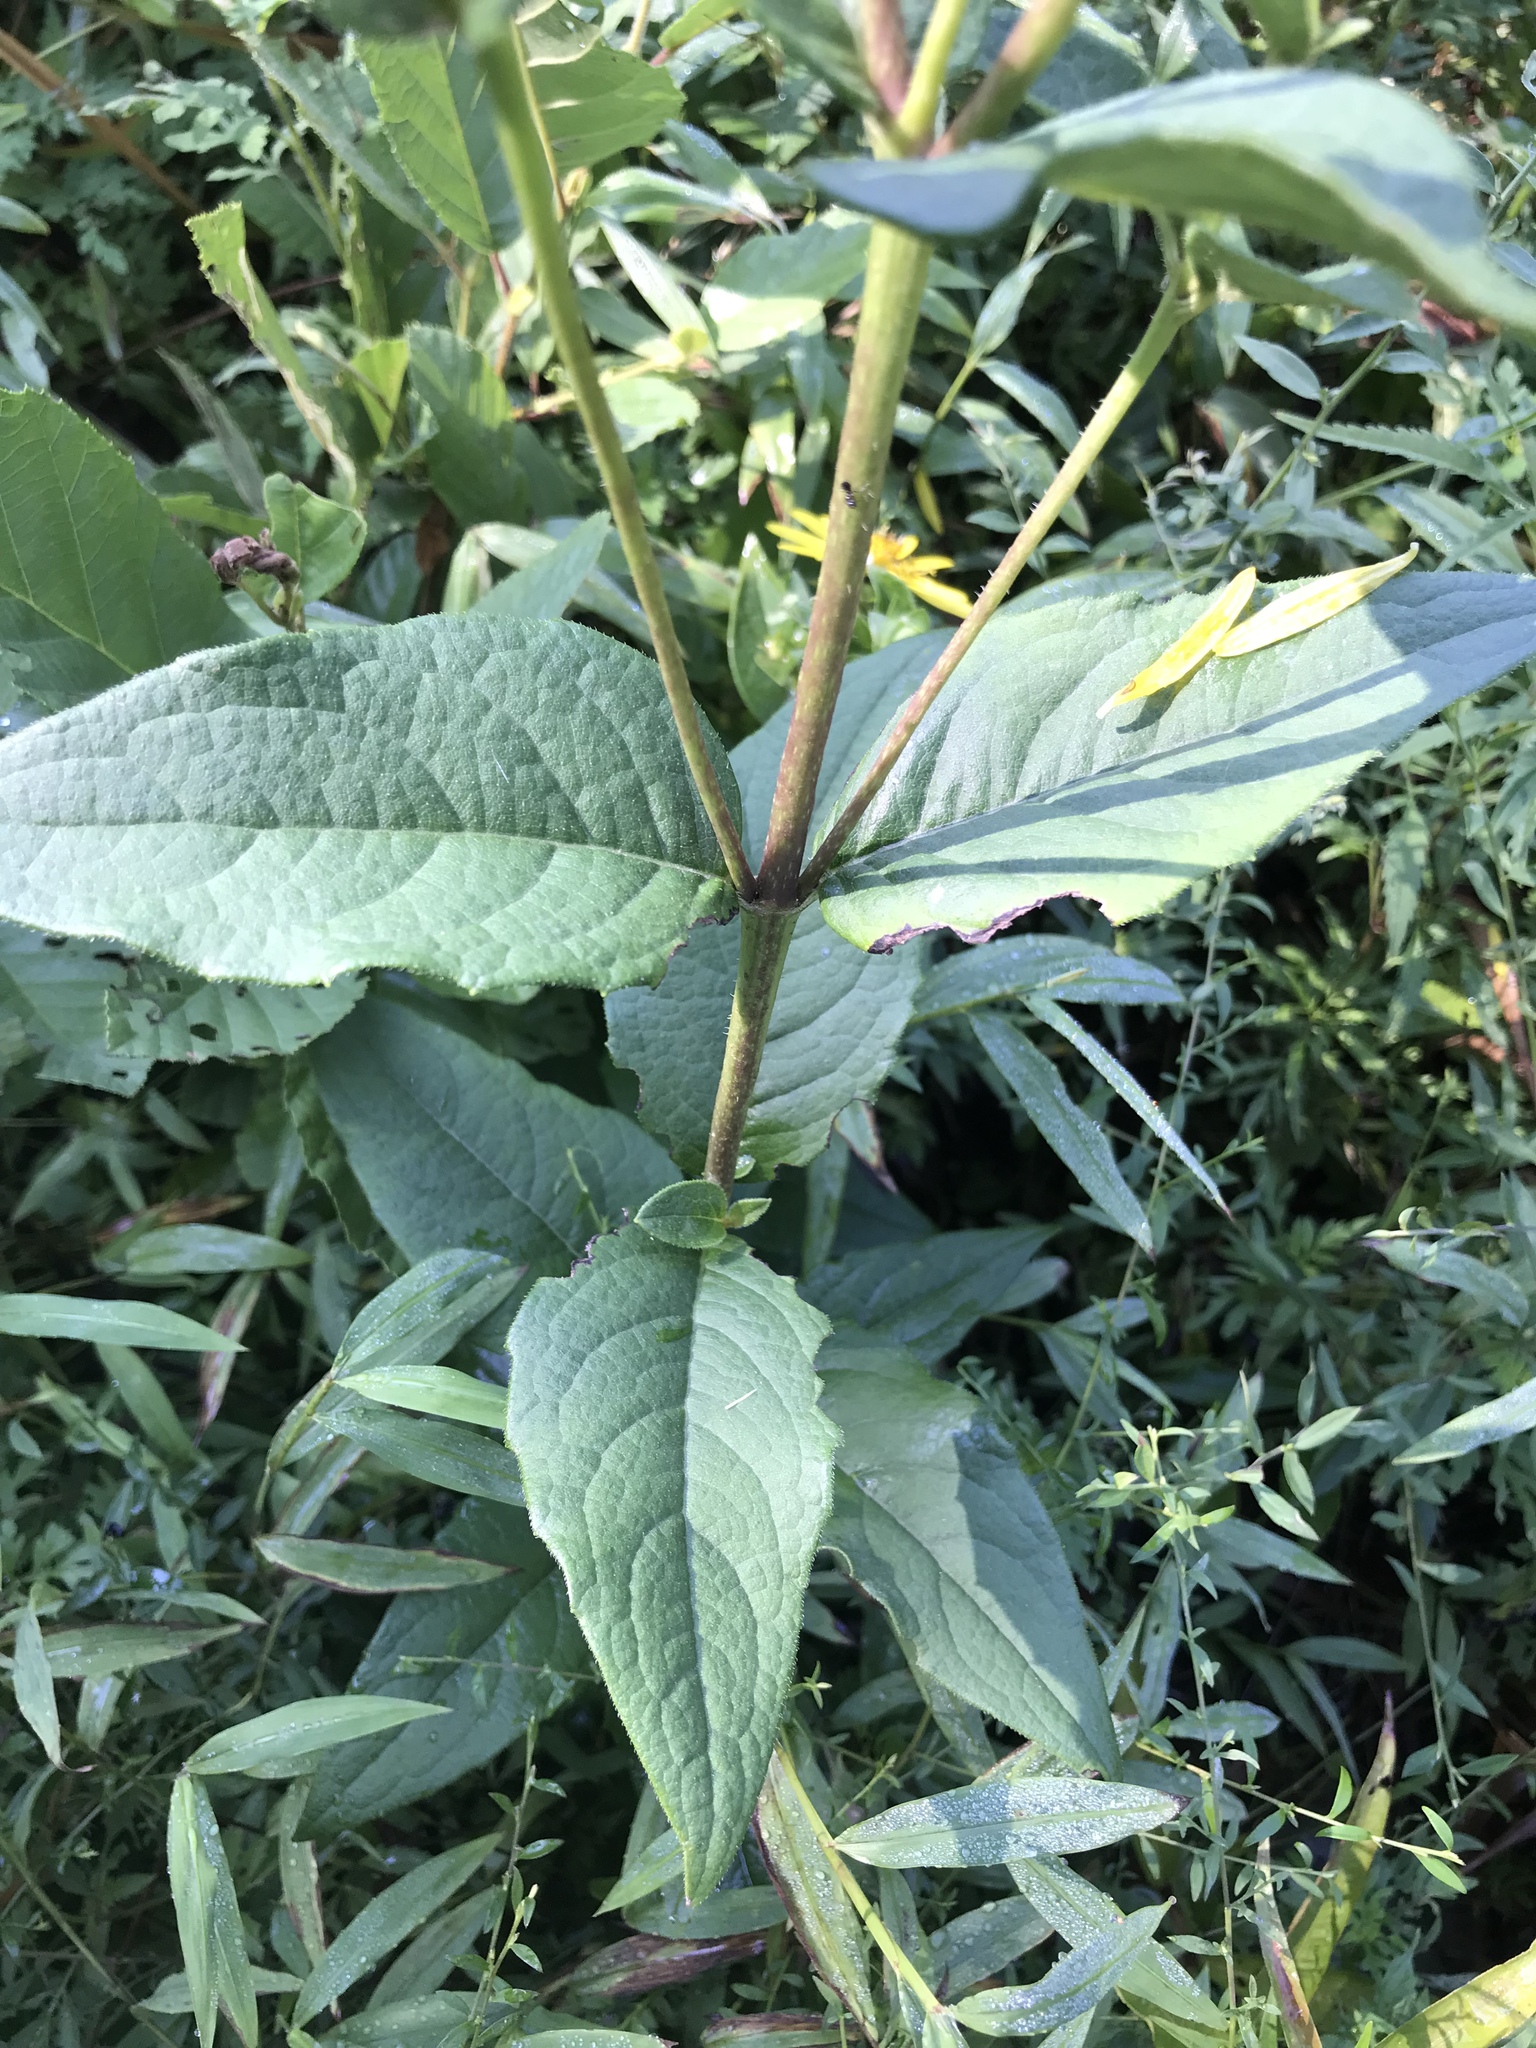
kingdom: Plantae
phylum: Tracheophyta
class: Magnoliopsida
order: Asterales
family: Asteraceae
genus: Silphium
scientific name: Silphium asteriscus
